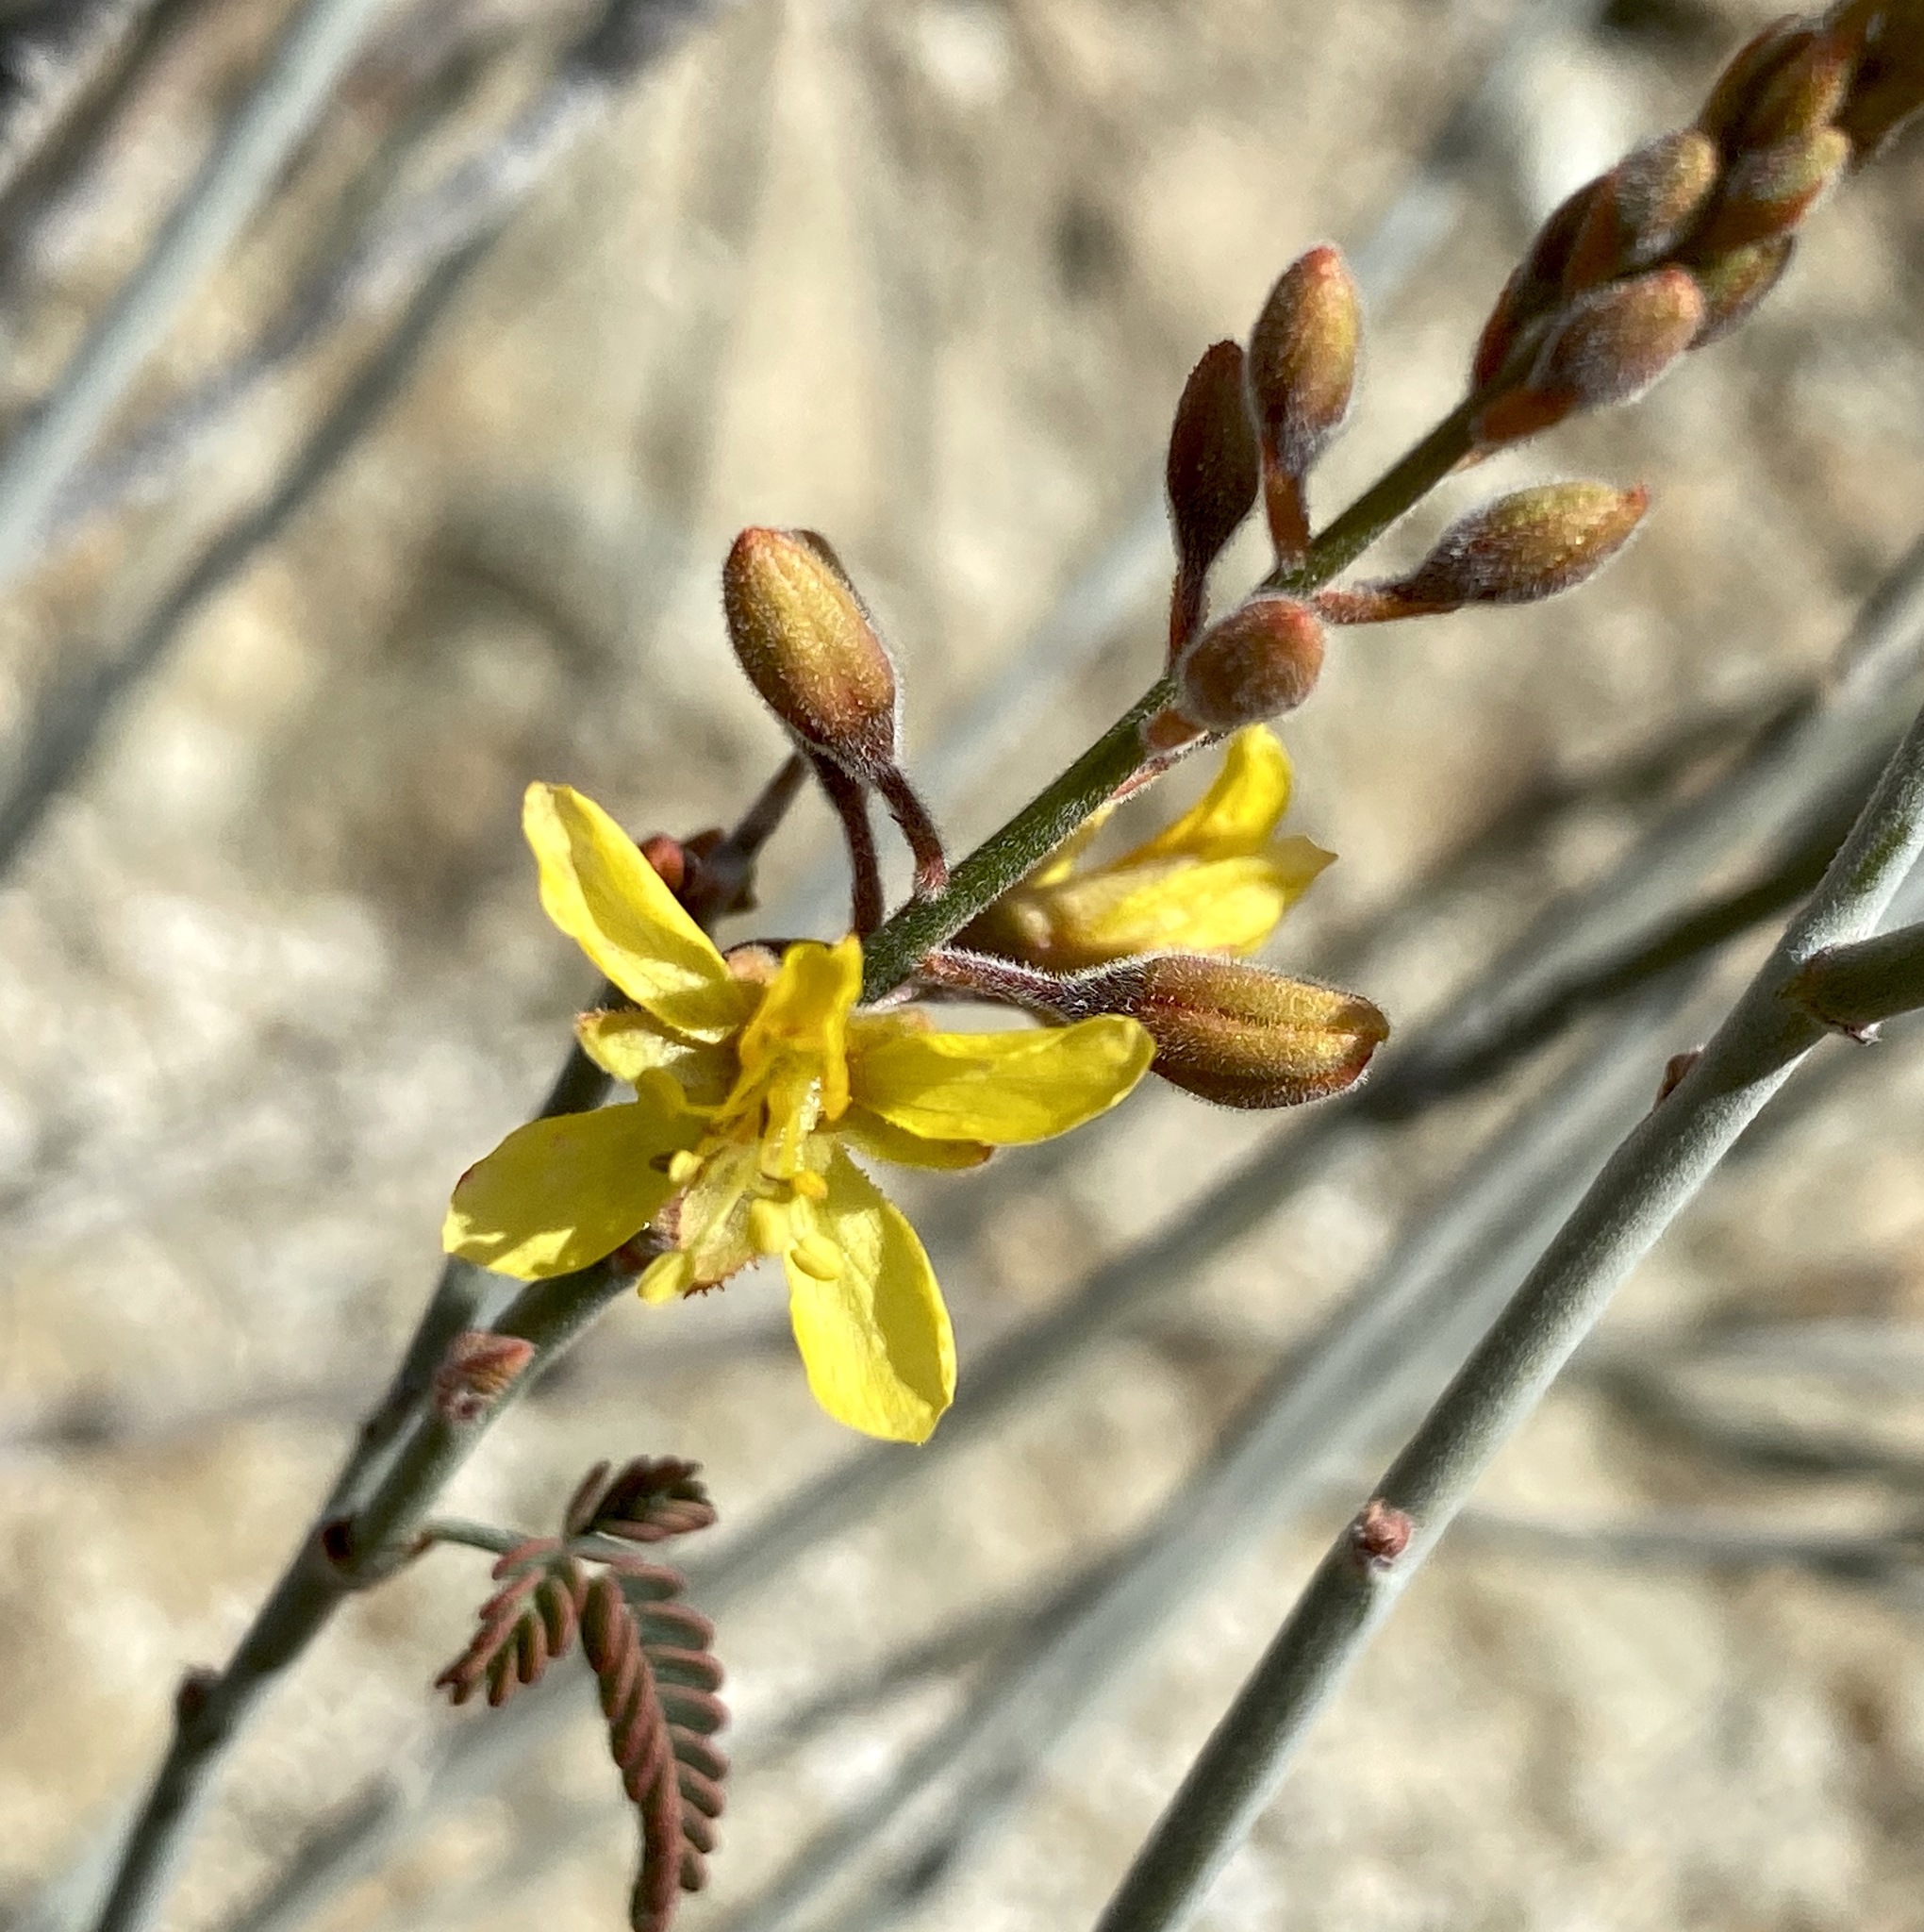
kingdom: Plantae
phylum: Tracheophyta
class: Magnoliopsida
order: Fabales
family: Fabaceae
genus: Hoffmannseggia
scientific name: Hoffmannseggia microphylla
